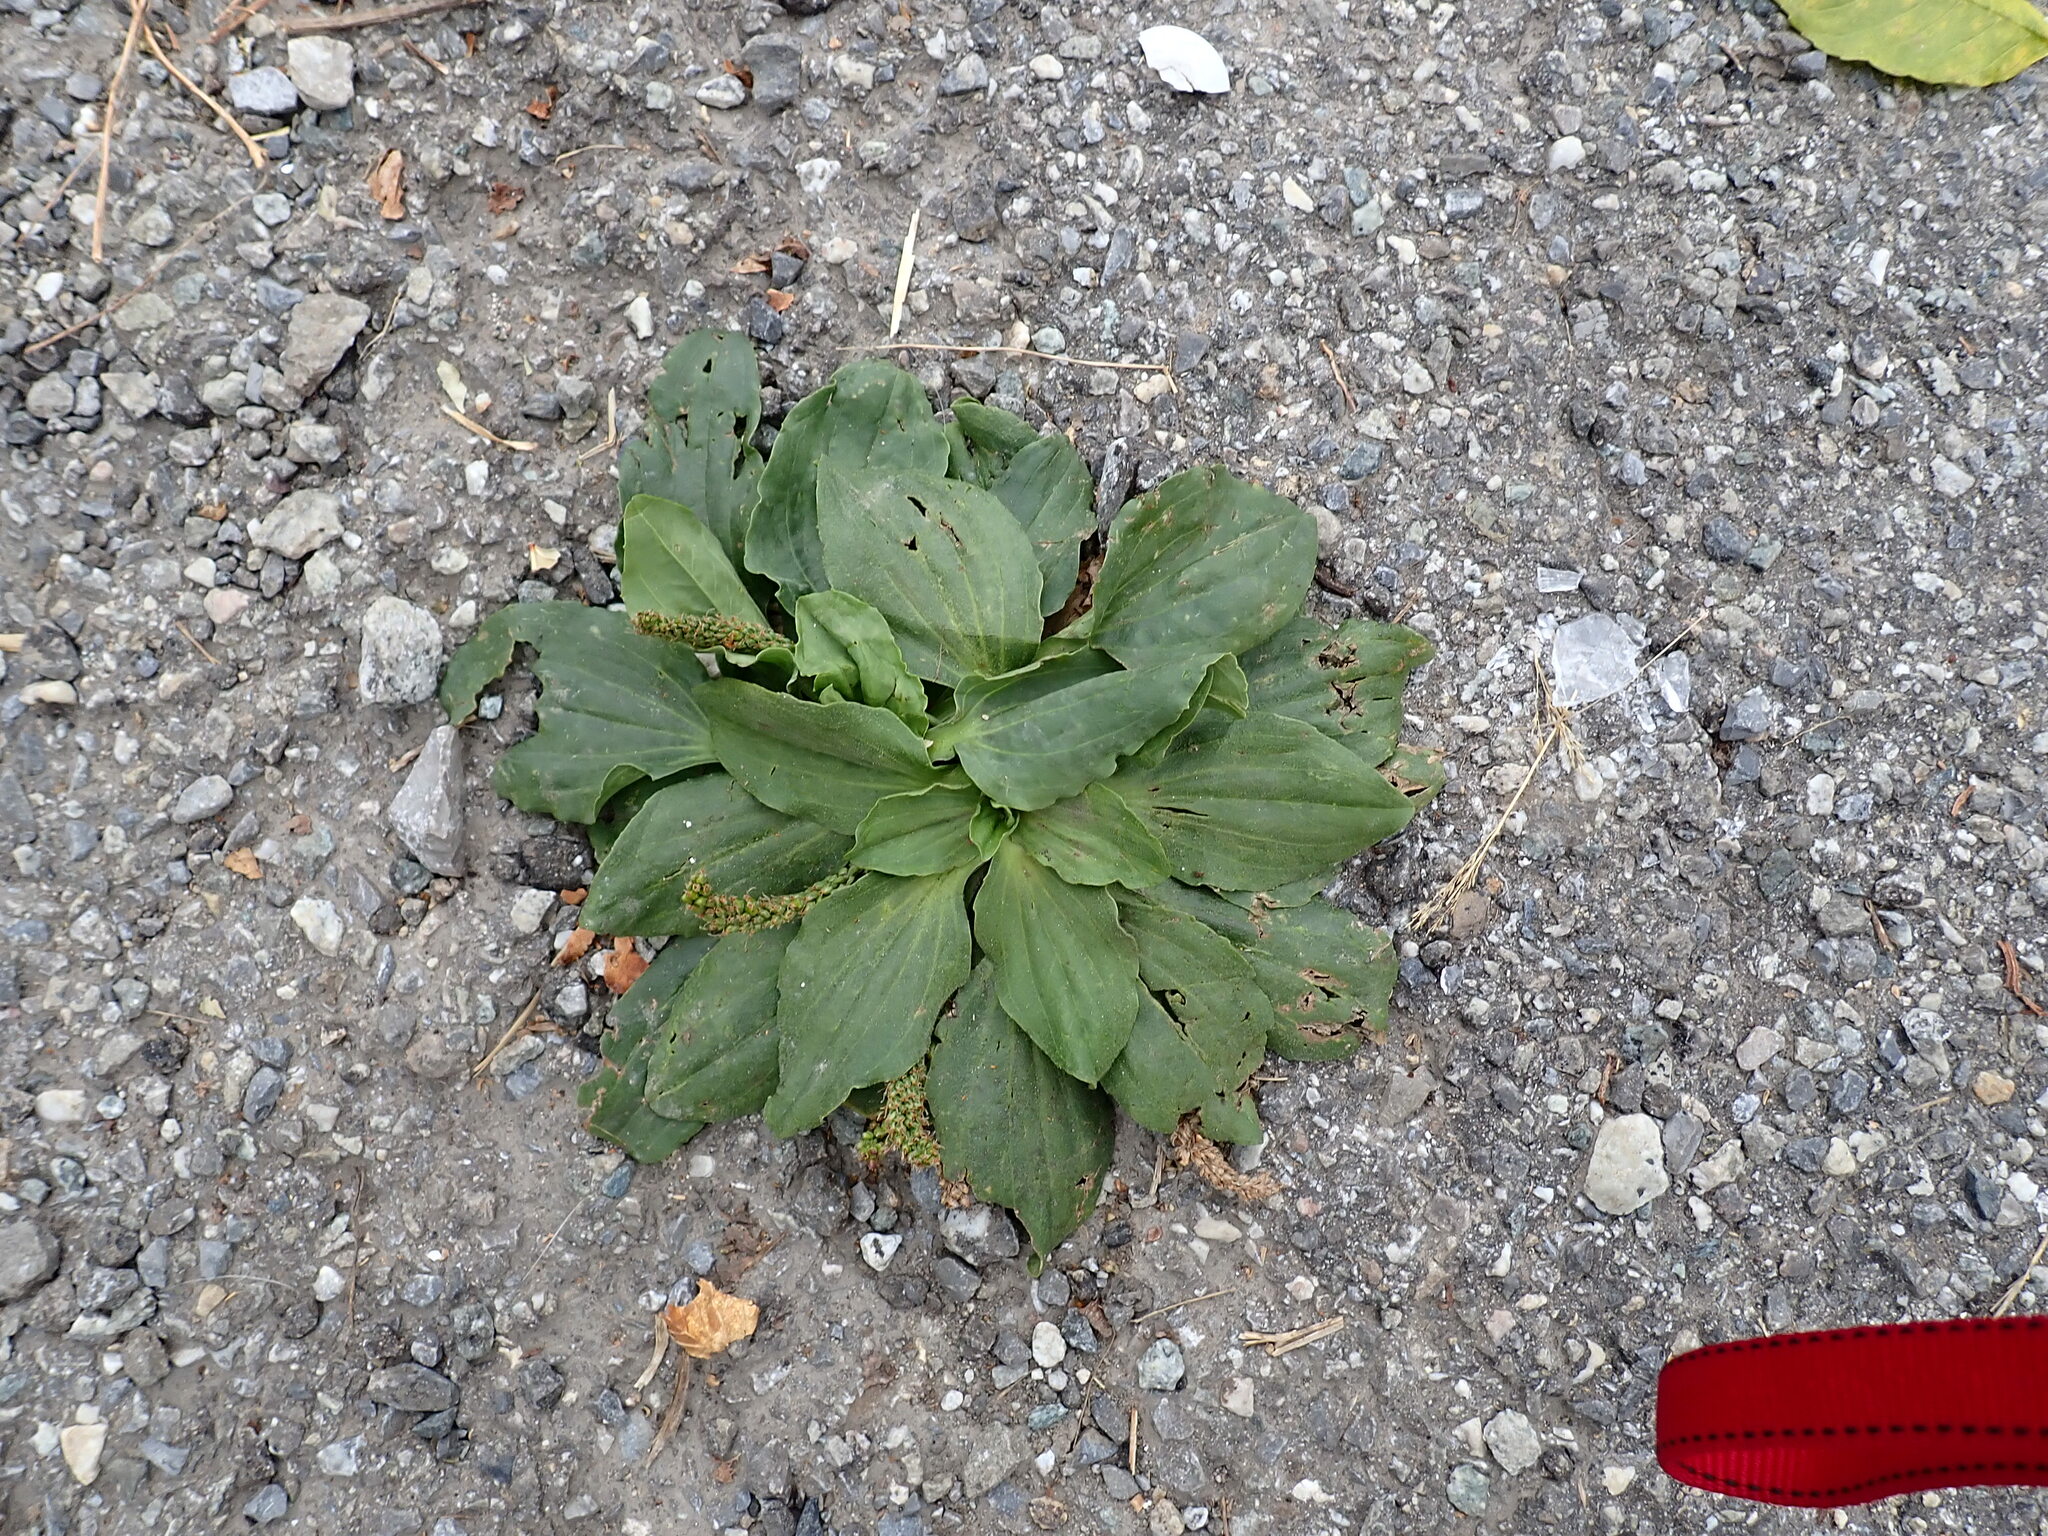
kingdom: Plantae
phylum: Tracheophyta
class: Magnoliopsida
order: Lamiales
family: Plantaginaceae
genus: Plantago
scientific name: Plantago major
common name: Common plantain
